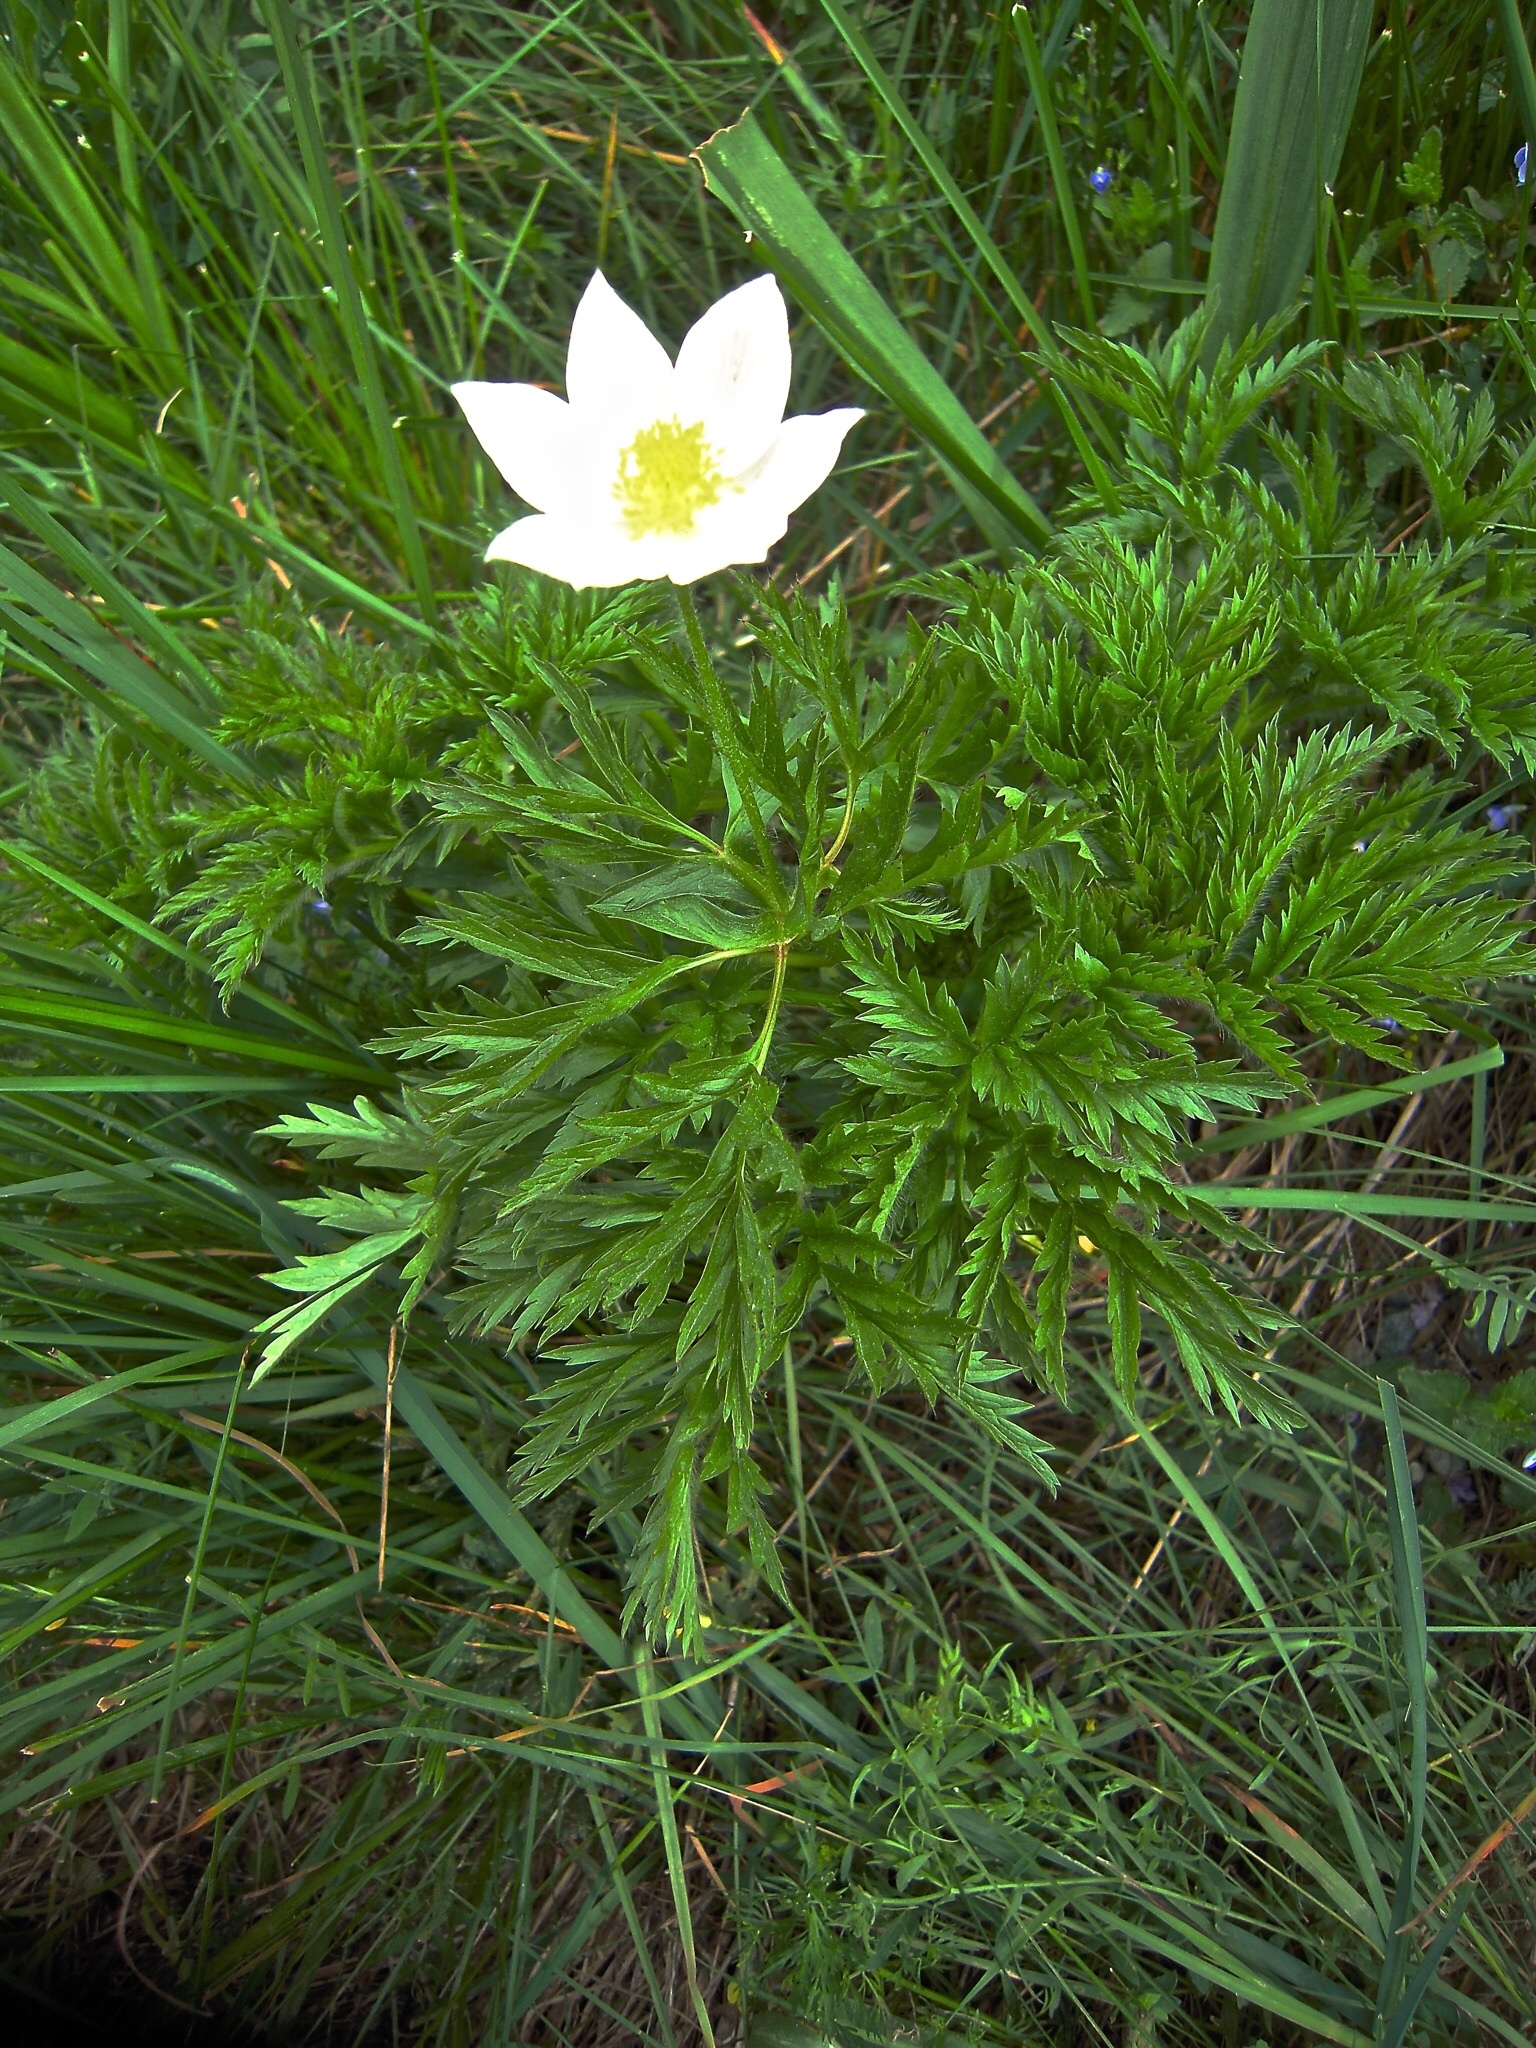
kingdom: Plantae
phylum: Tracheophyta
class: Magnoliopsida
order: Ranunculales
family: Ranunculaceae
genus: Pulsatilla
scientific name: Pulsatilla alpina
